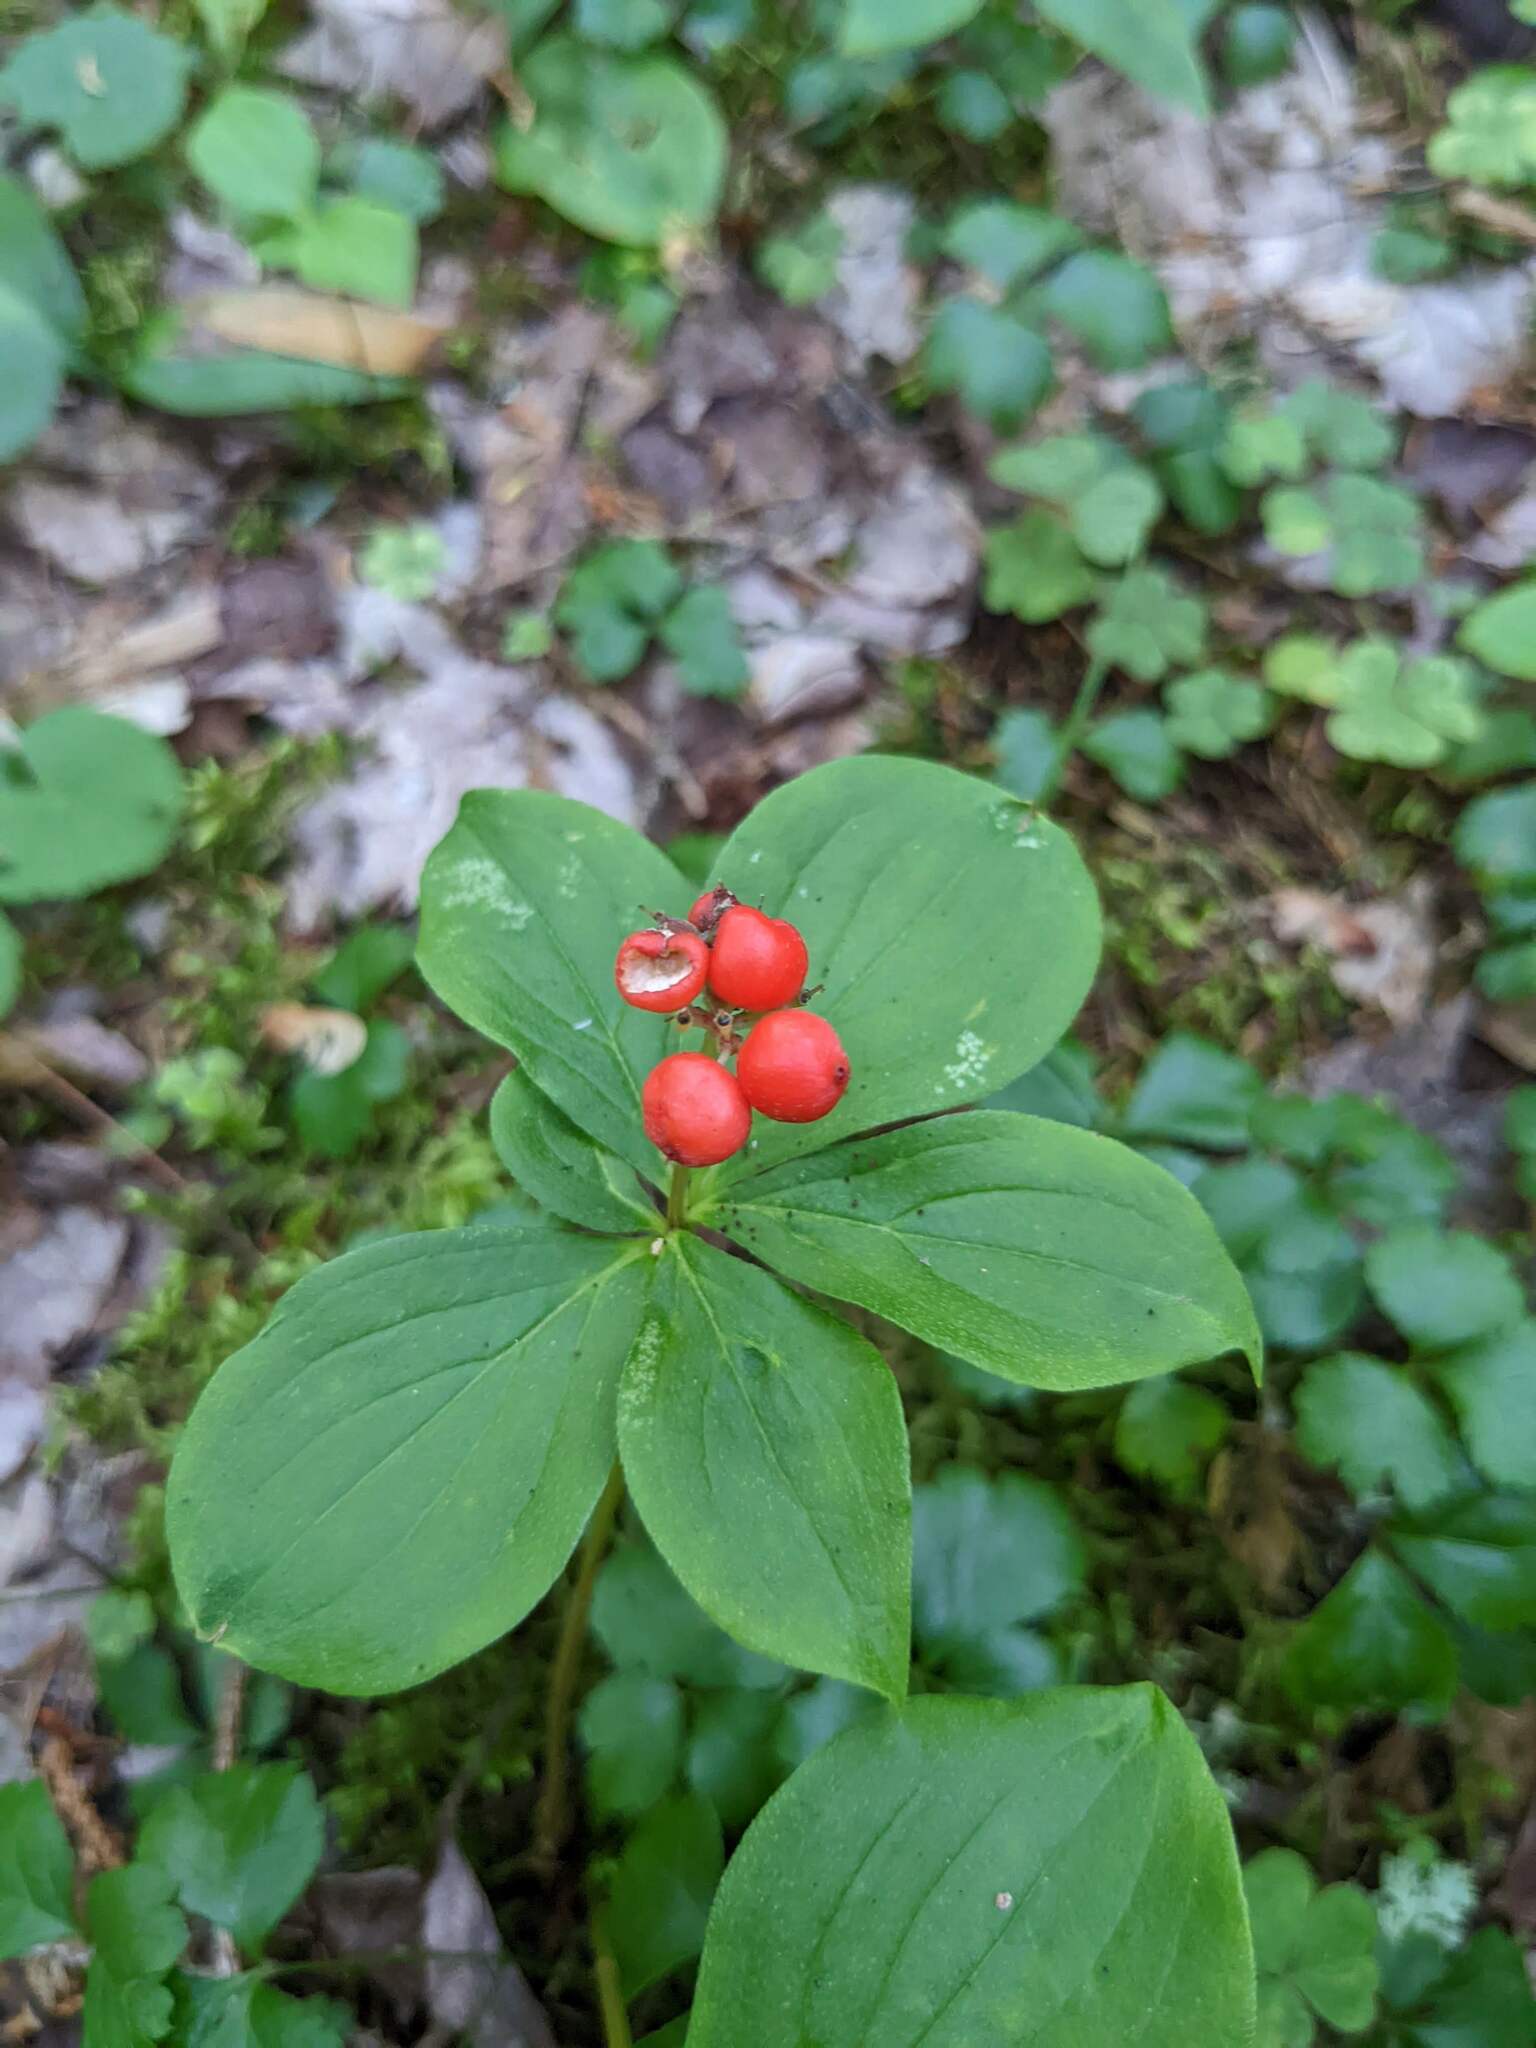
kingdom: Plantae
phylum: Tracheophyta
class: Magnoliopsida
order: Cornales
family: Cornaceae
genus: Cornus
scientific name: Cornus canadensis
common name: Creeping dogwood
